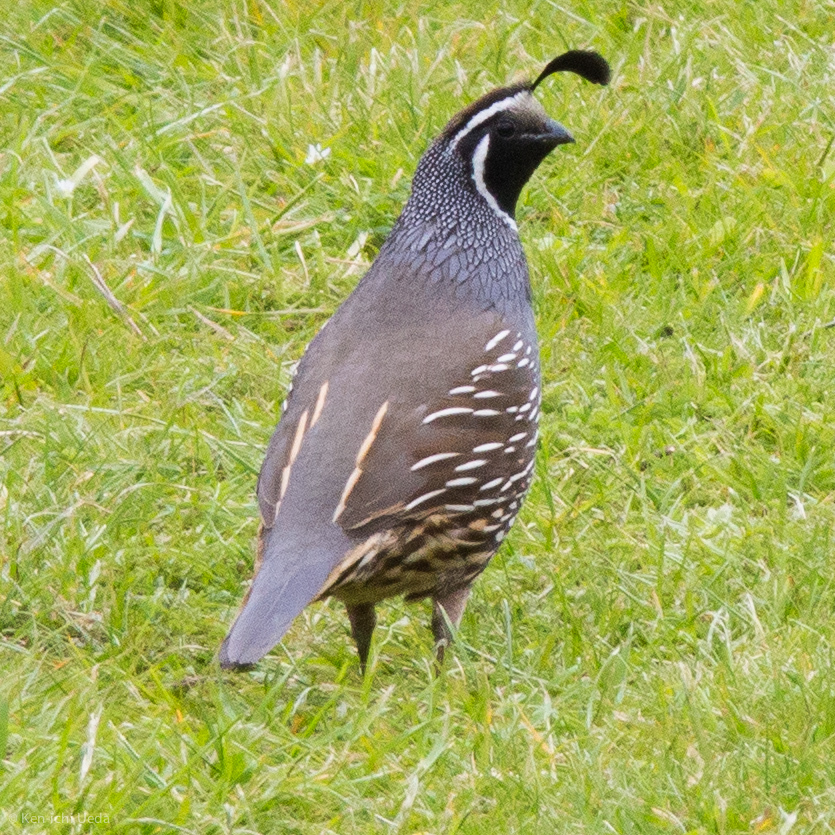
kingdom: Animalia
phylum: Chordata
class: Aves
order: Galliformes
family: Odontophoridae
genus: Callipepla
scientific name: Callipepla californica
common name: California quail
